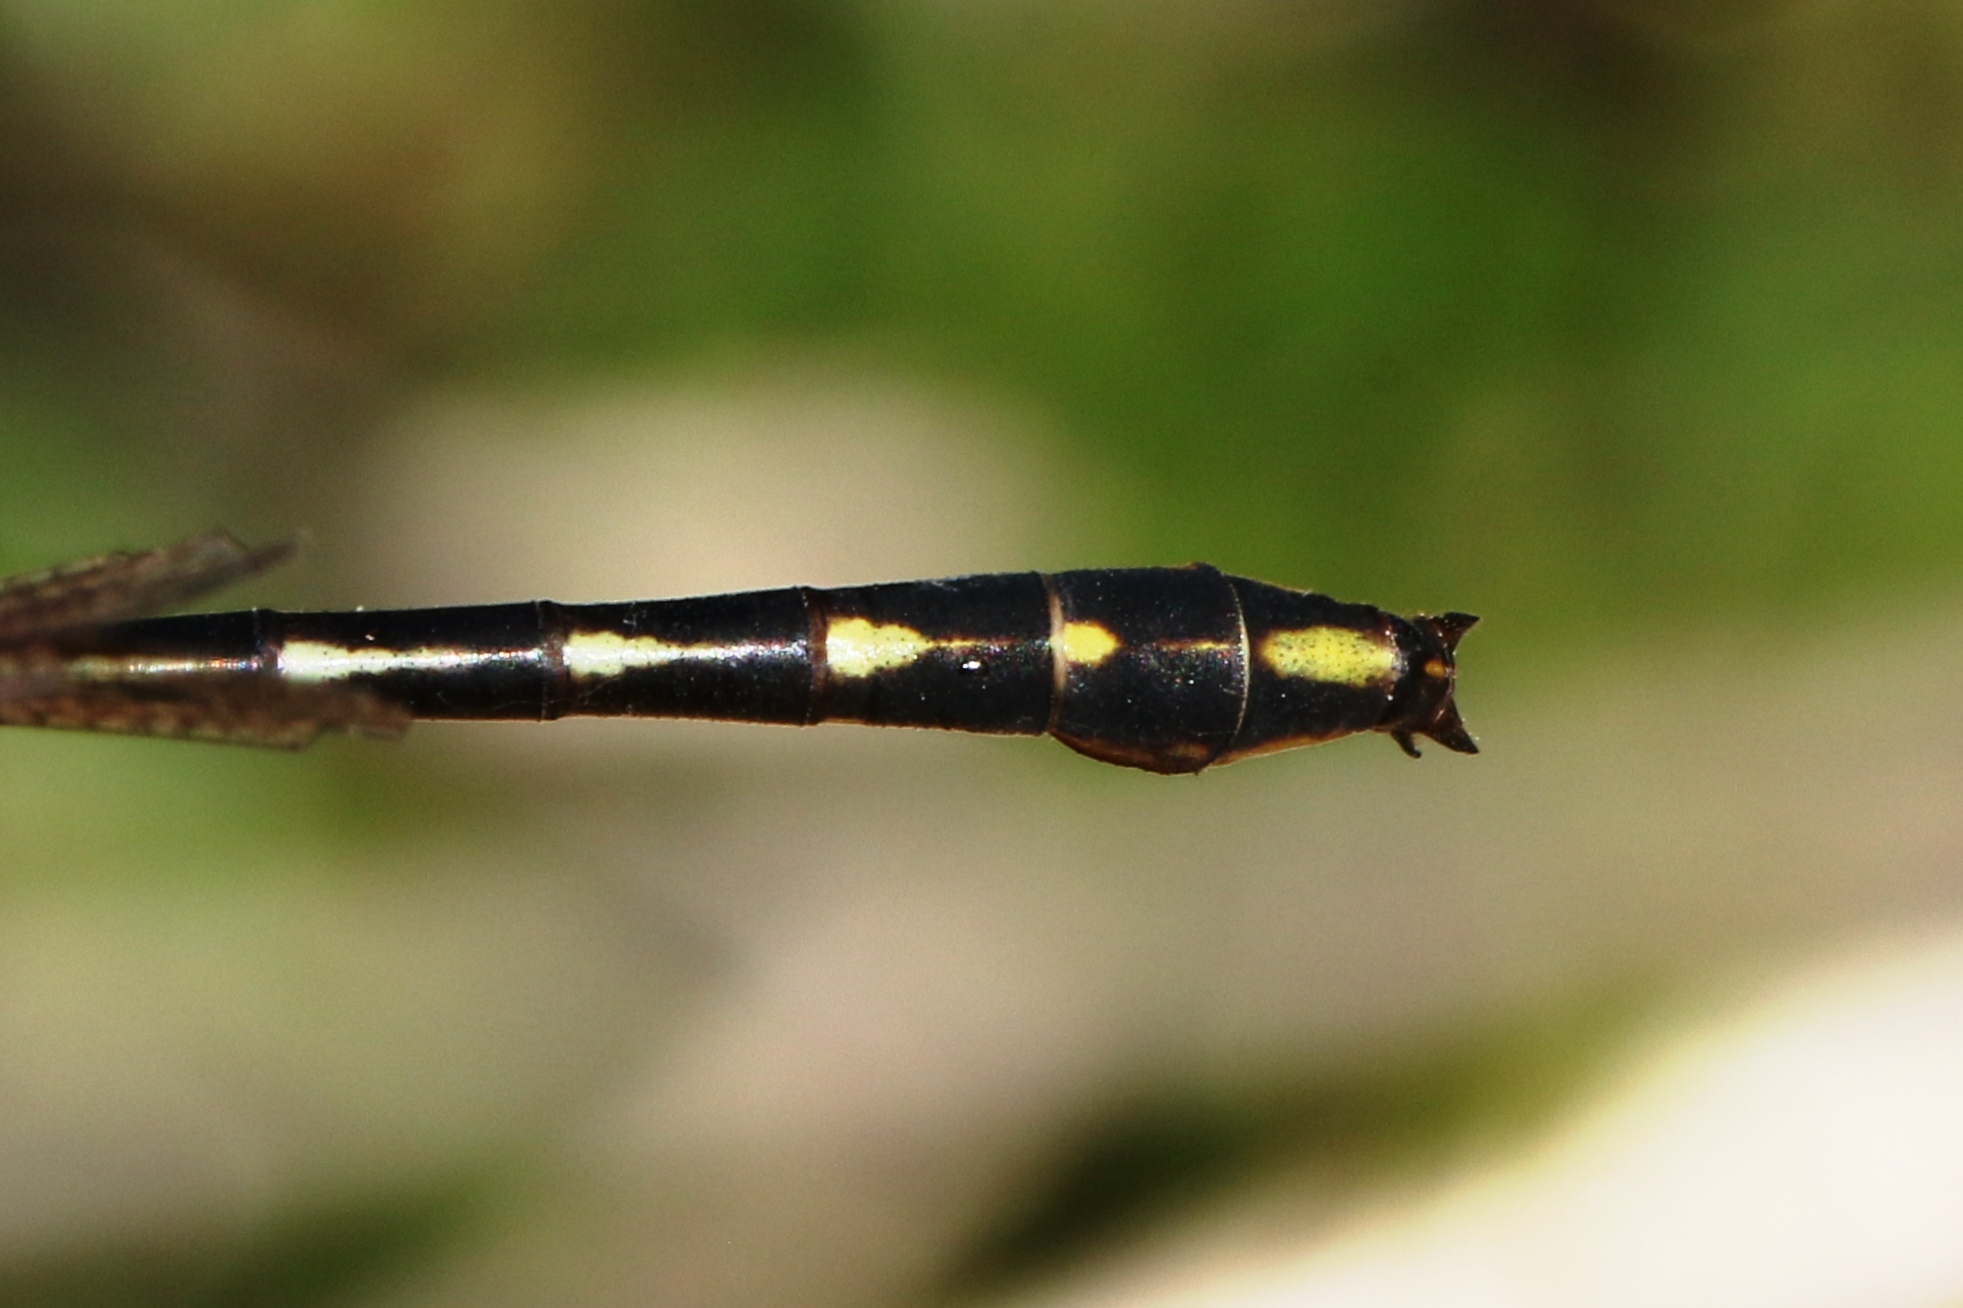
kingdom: Animalia
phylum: Arthropoda
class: Insecta
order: Odonata
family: Gomphidae
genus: Phanogomphus
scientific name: Phanogomphus exilis
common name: Lancet clubtail
